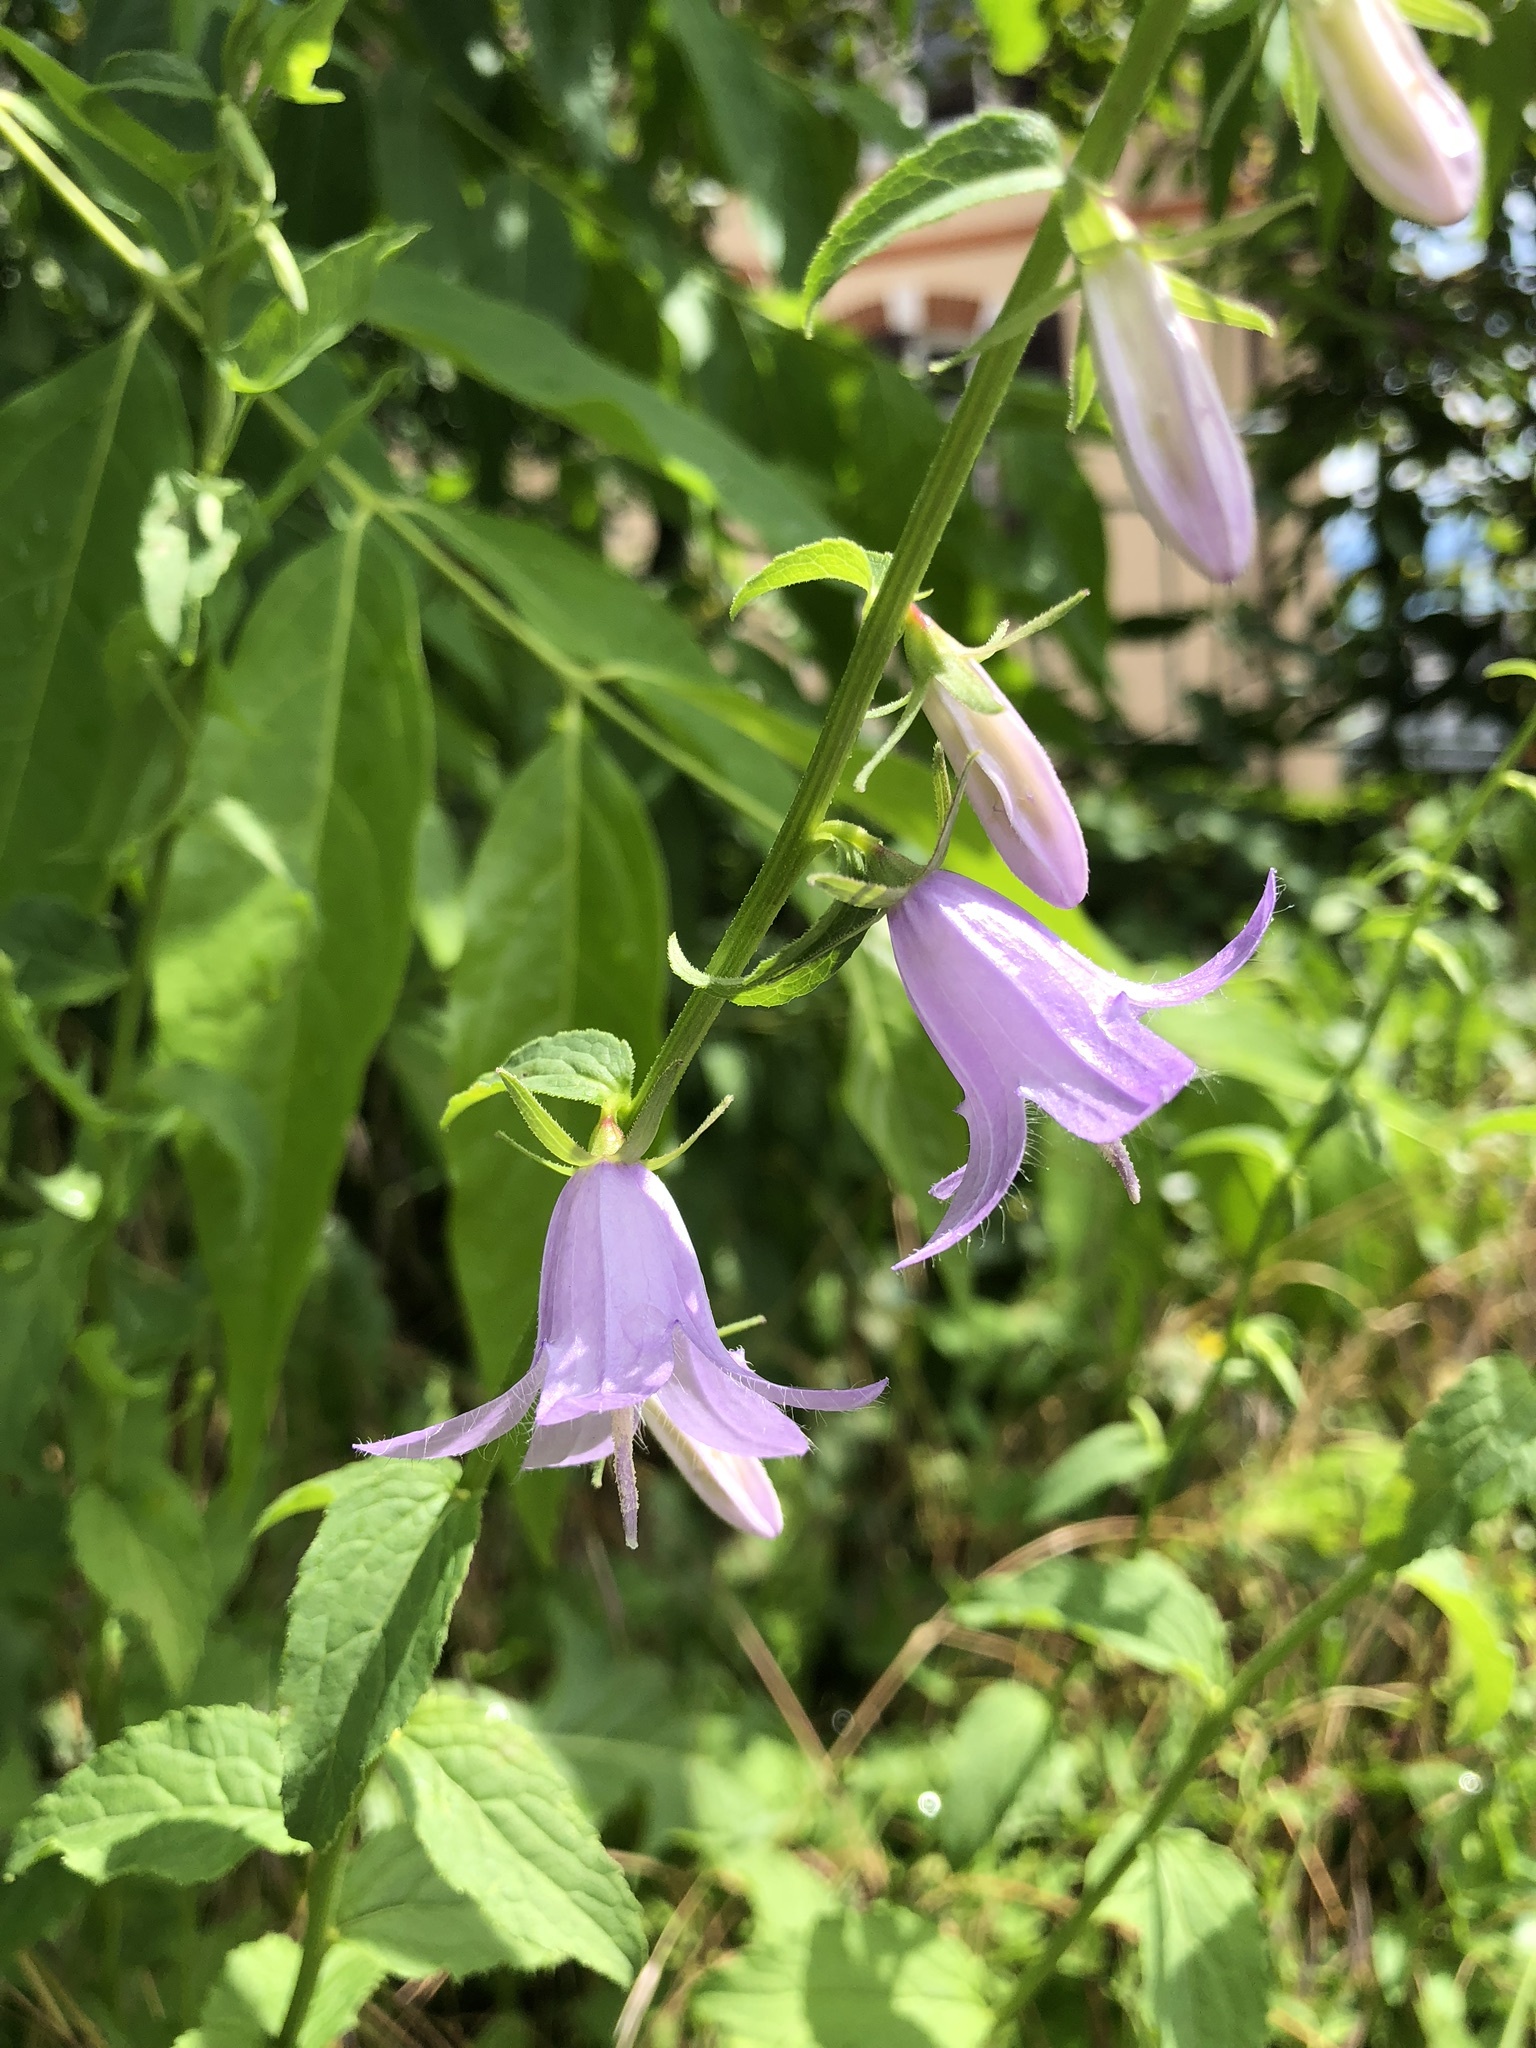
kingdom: Plantae
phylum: Tracheophyta
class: Magnoliopsida
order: Asterales
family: Campanulaceae
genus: Campanula
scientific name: Campanula rapunculoides
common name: Creeping bellflower
